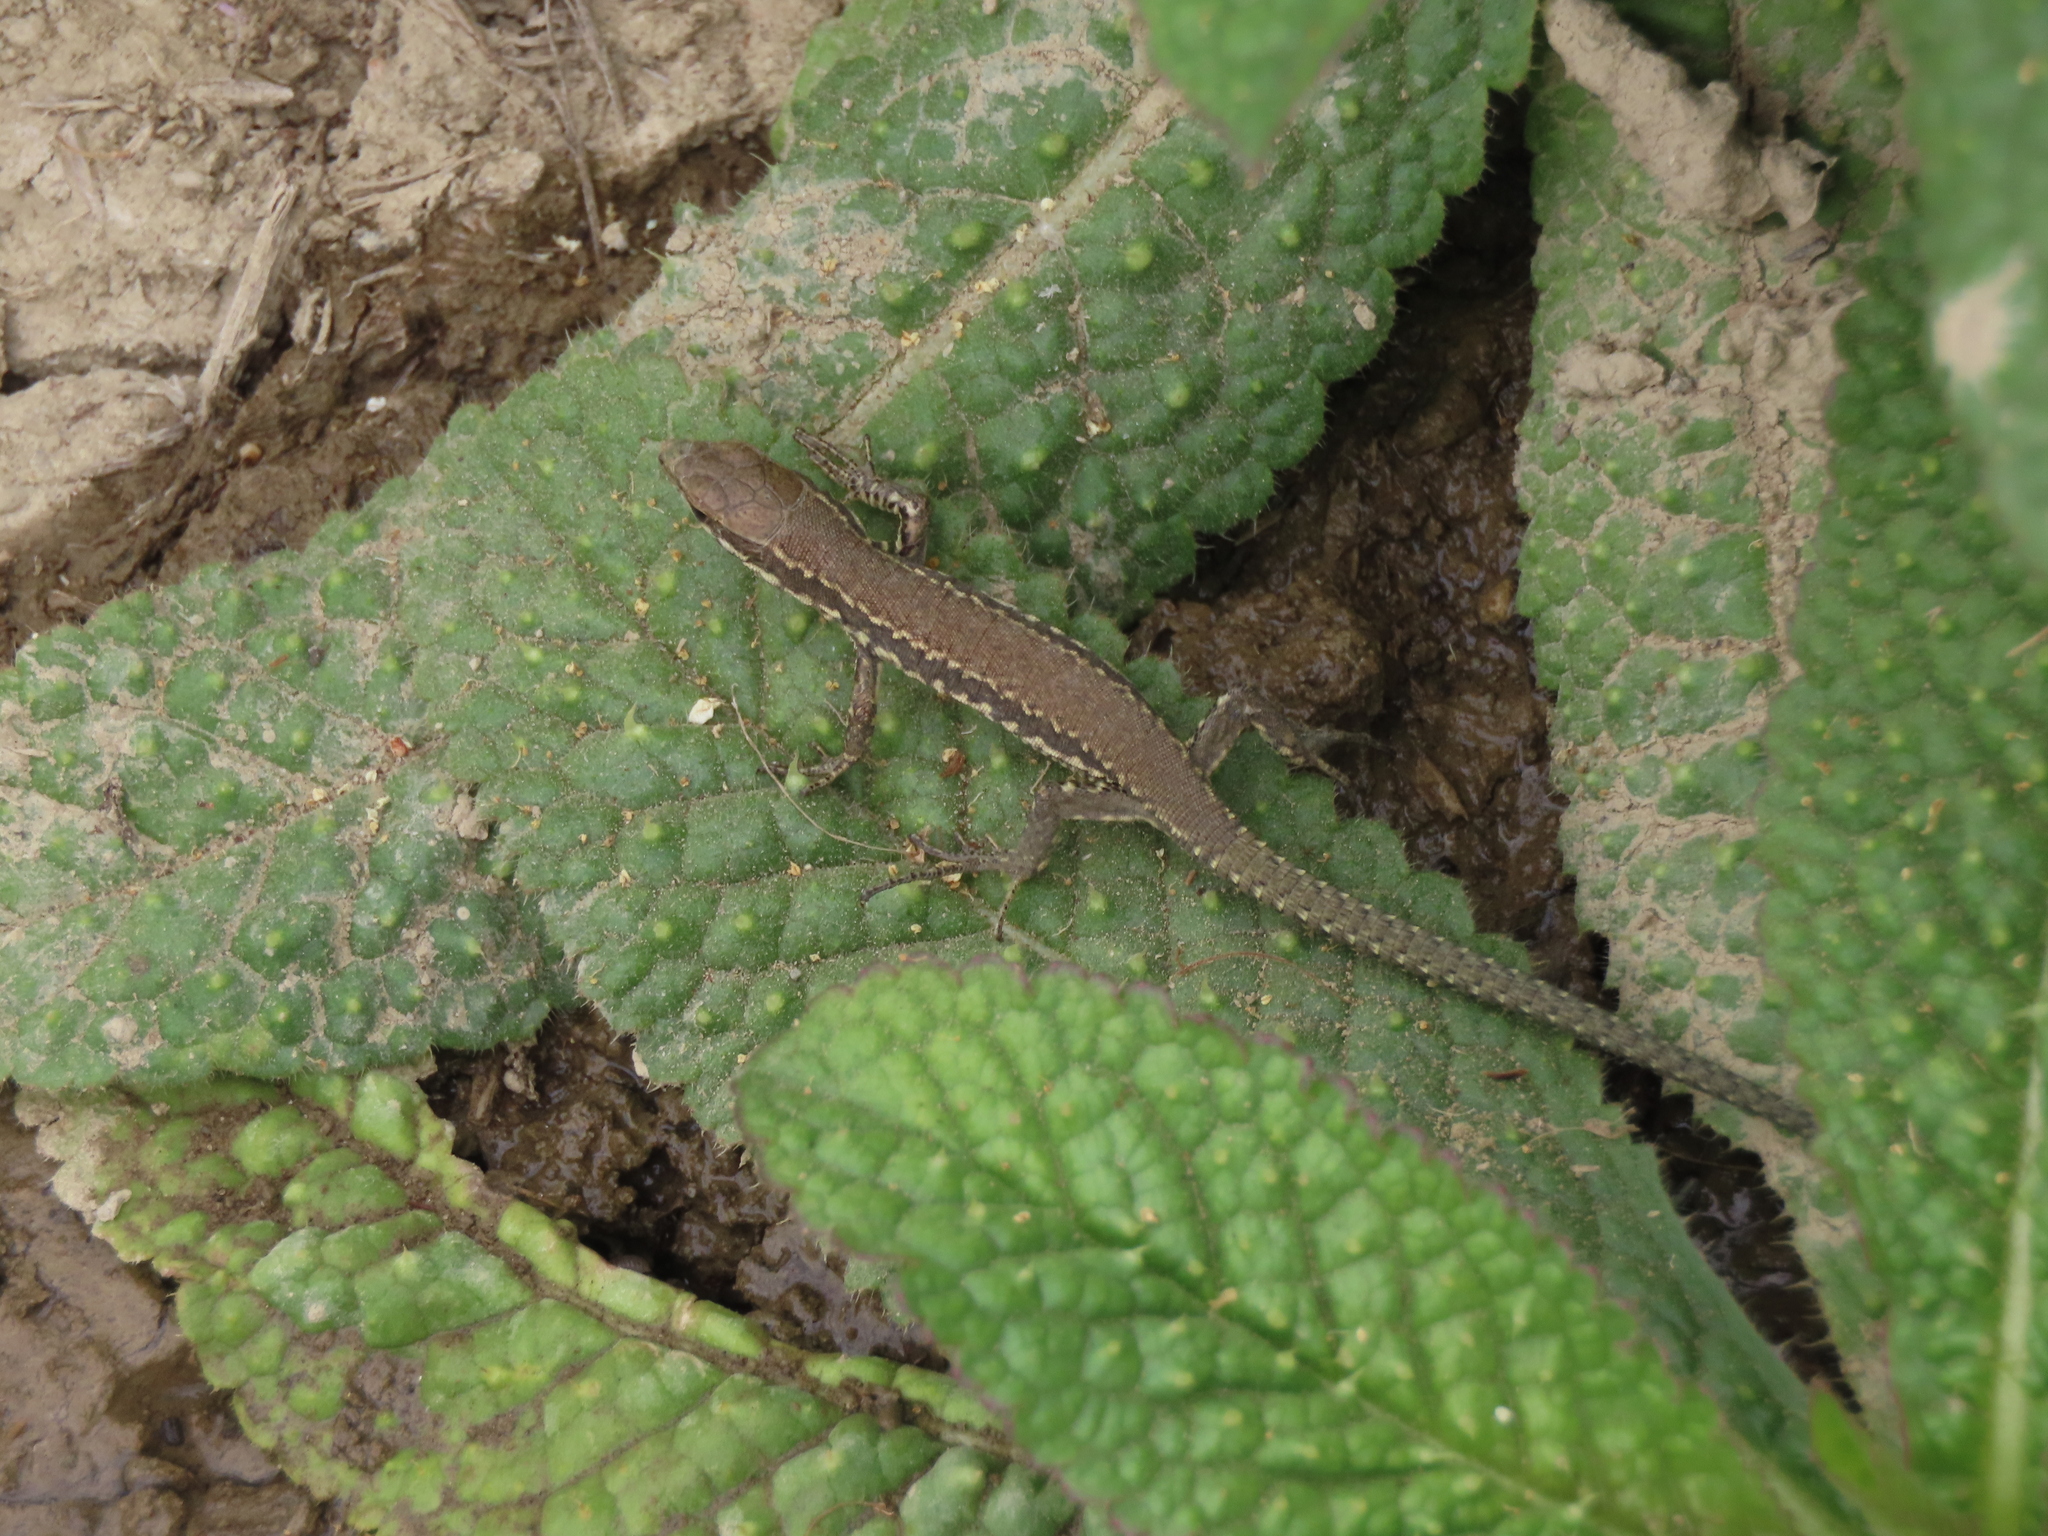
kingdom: Animalia
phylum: Chordata
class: Squamata
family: Lacertidae
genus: Podarcis
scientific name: Podarcis muralis
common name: Common wall lizard
